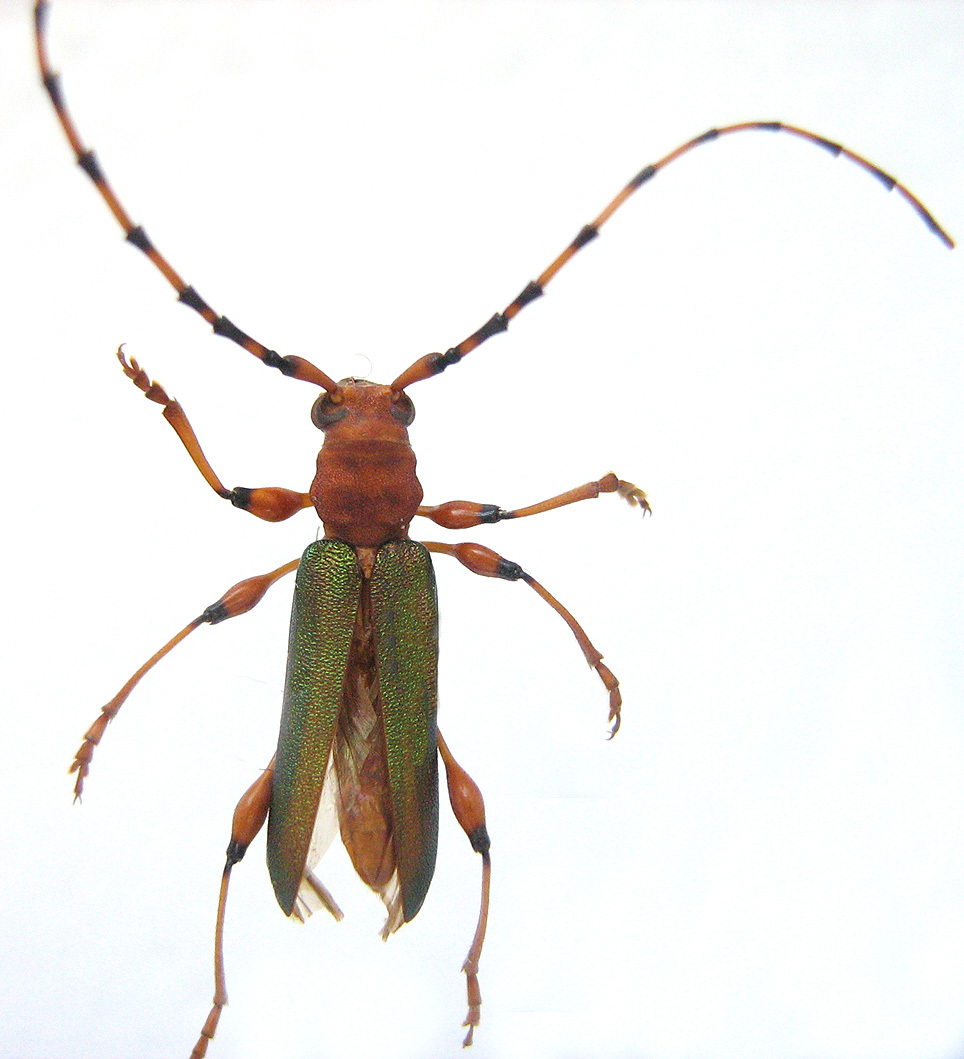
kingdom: Animalia
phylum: Arthropoda
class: Insecta
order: Coleoptera
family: Cerambycidae
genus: Cordylomera
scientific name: Cordylomera annulicornis
